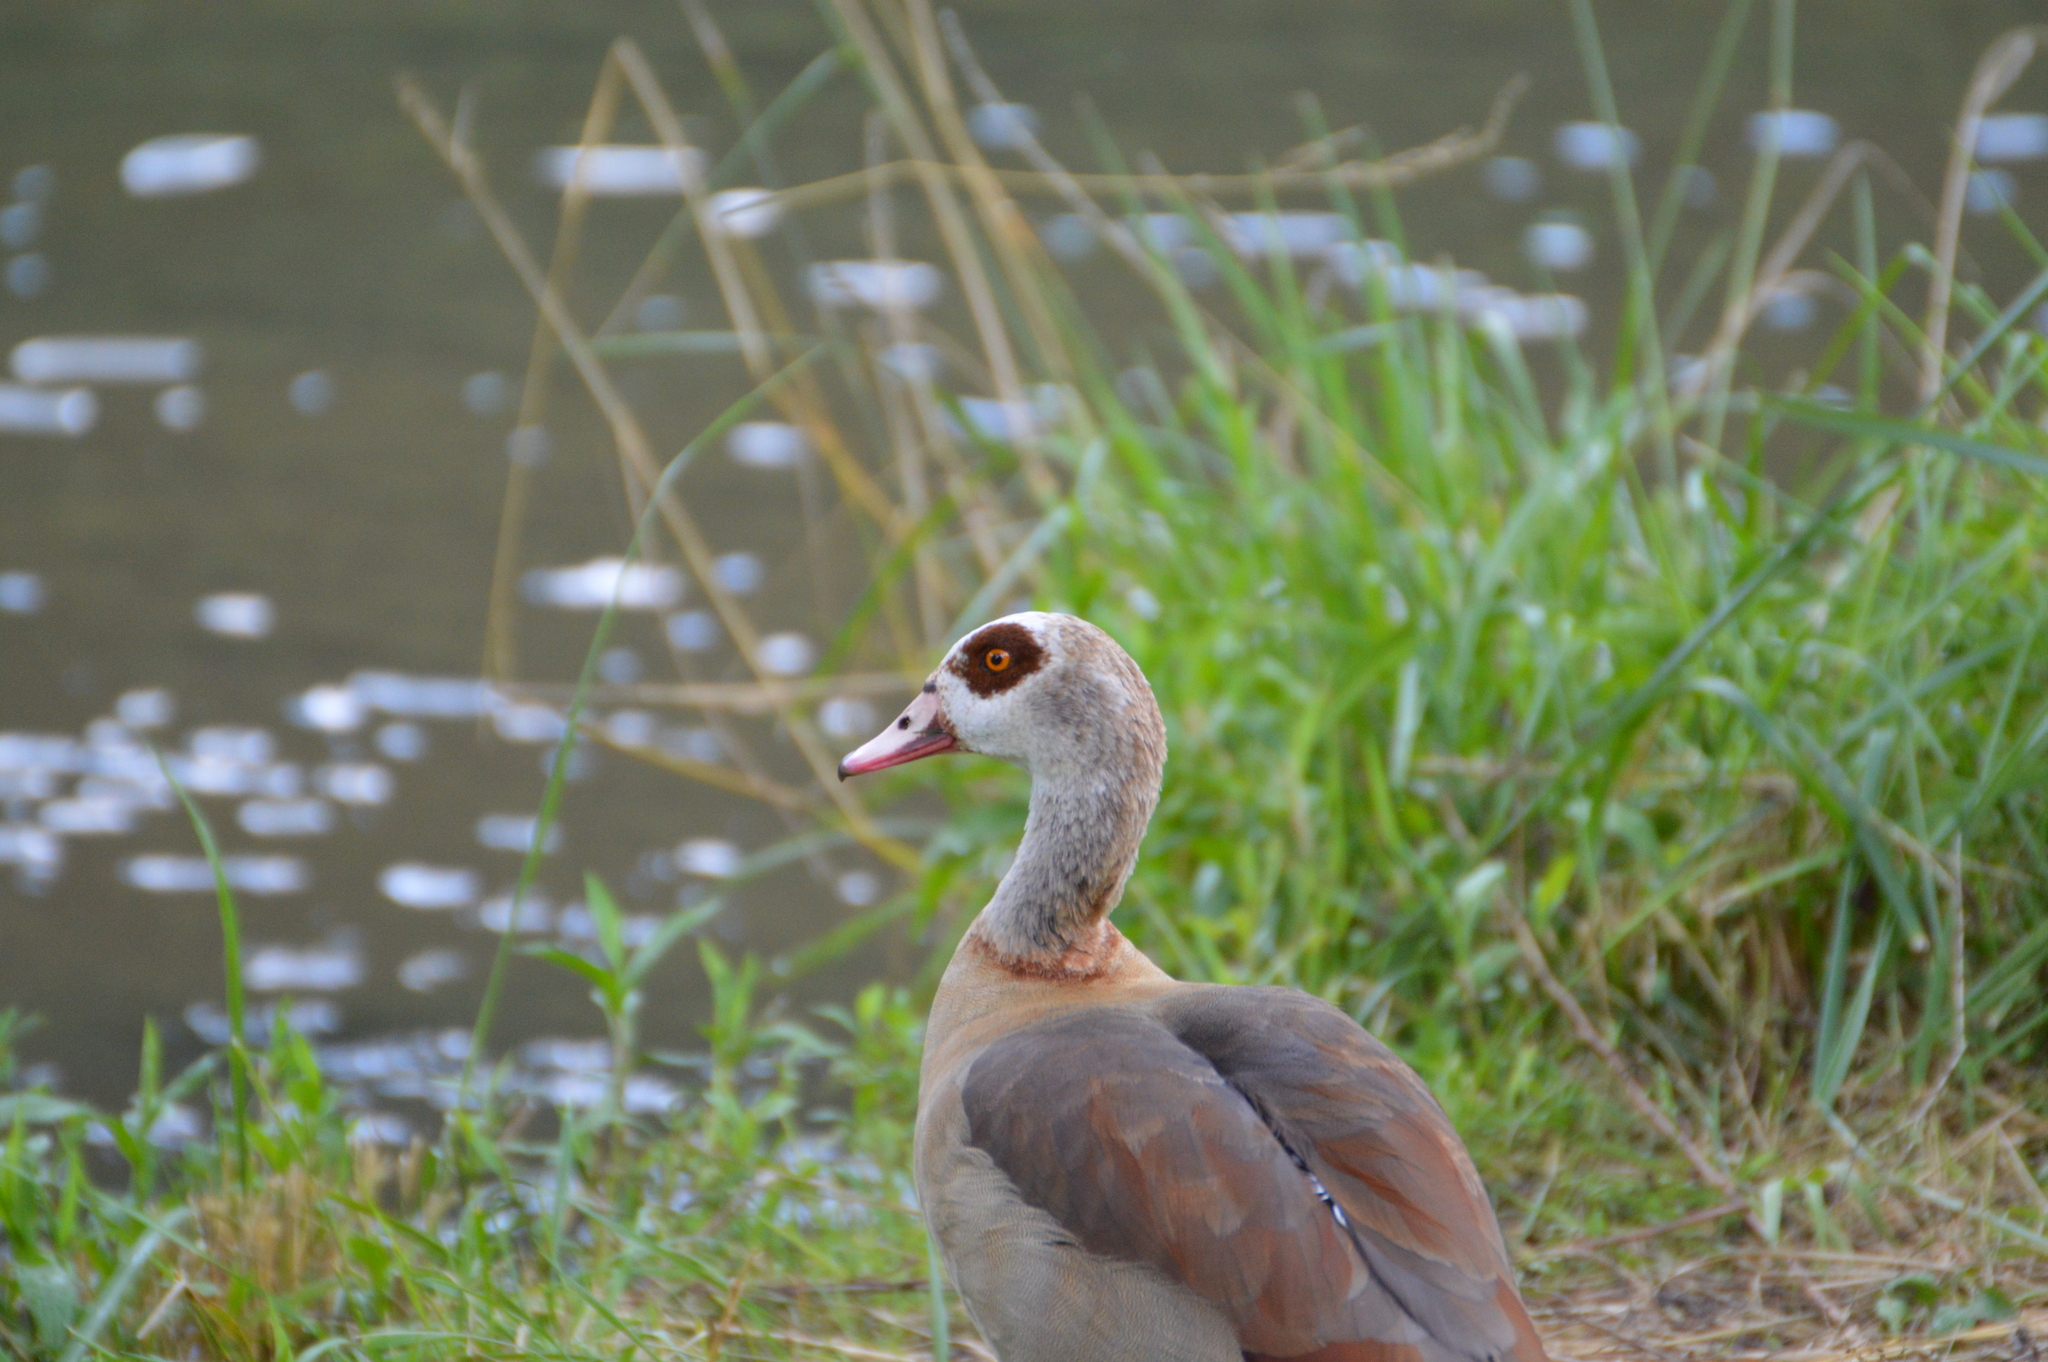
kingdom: Animalia
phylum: Chordata
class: Aves
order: Anseriformes
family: Anatidae
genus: Alopochen
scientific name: Alopochen aegyptiaca
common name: Egyptian goose
